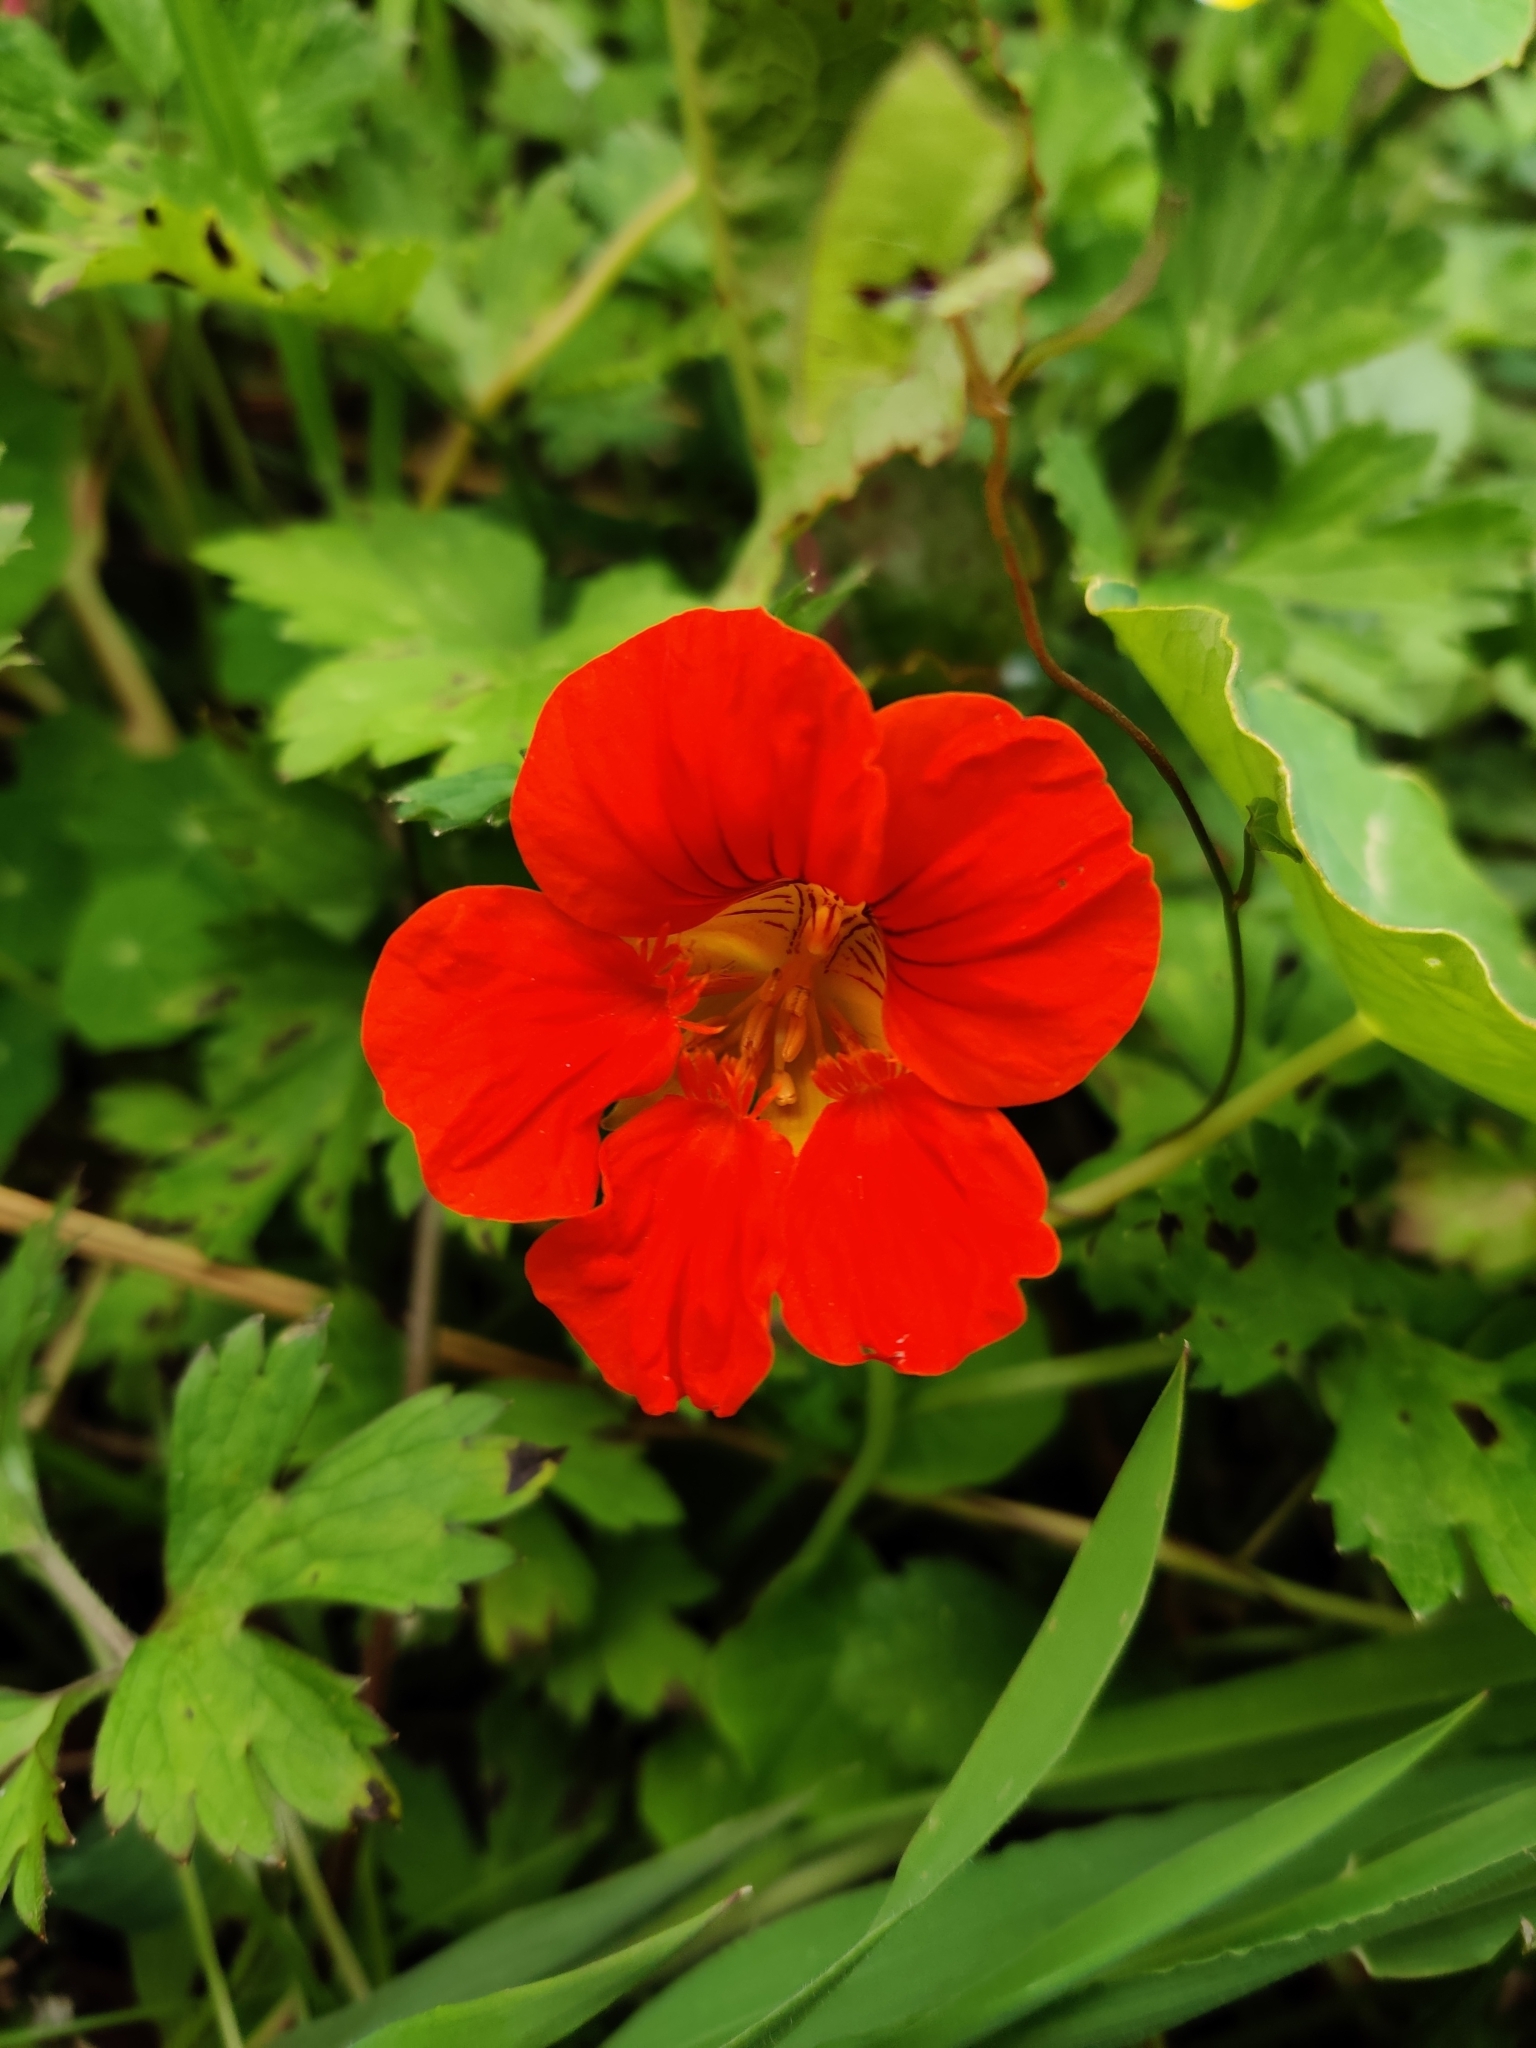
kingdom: Plantae
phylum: Tracheophyta
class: Magnoliopsida
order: Brassicales
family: Tropaeolaceae
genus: Tropaeolum
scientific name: Tropaeolum majus
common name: Nasturtium
